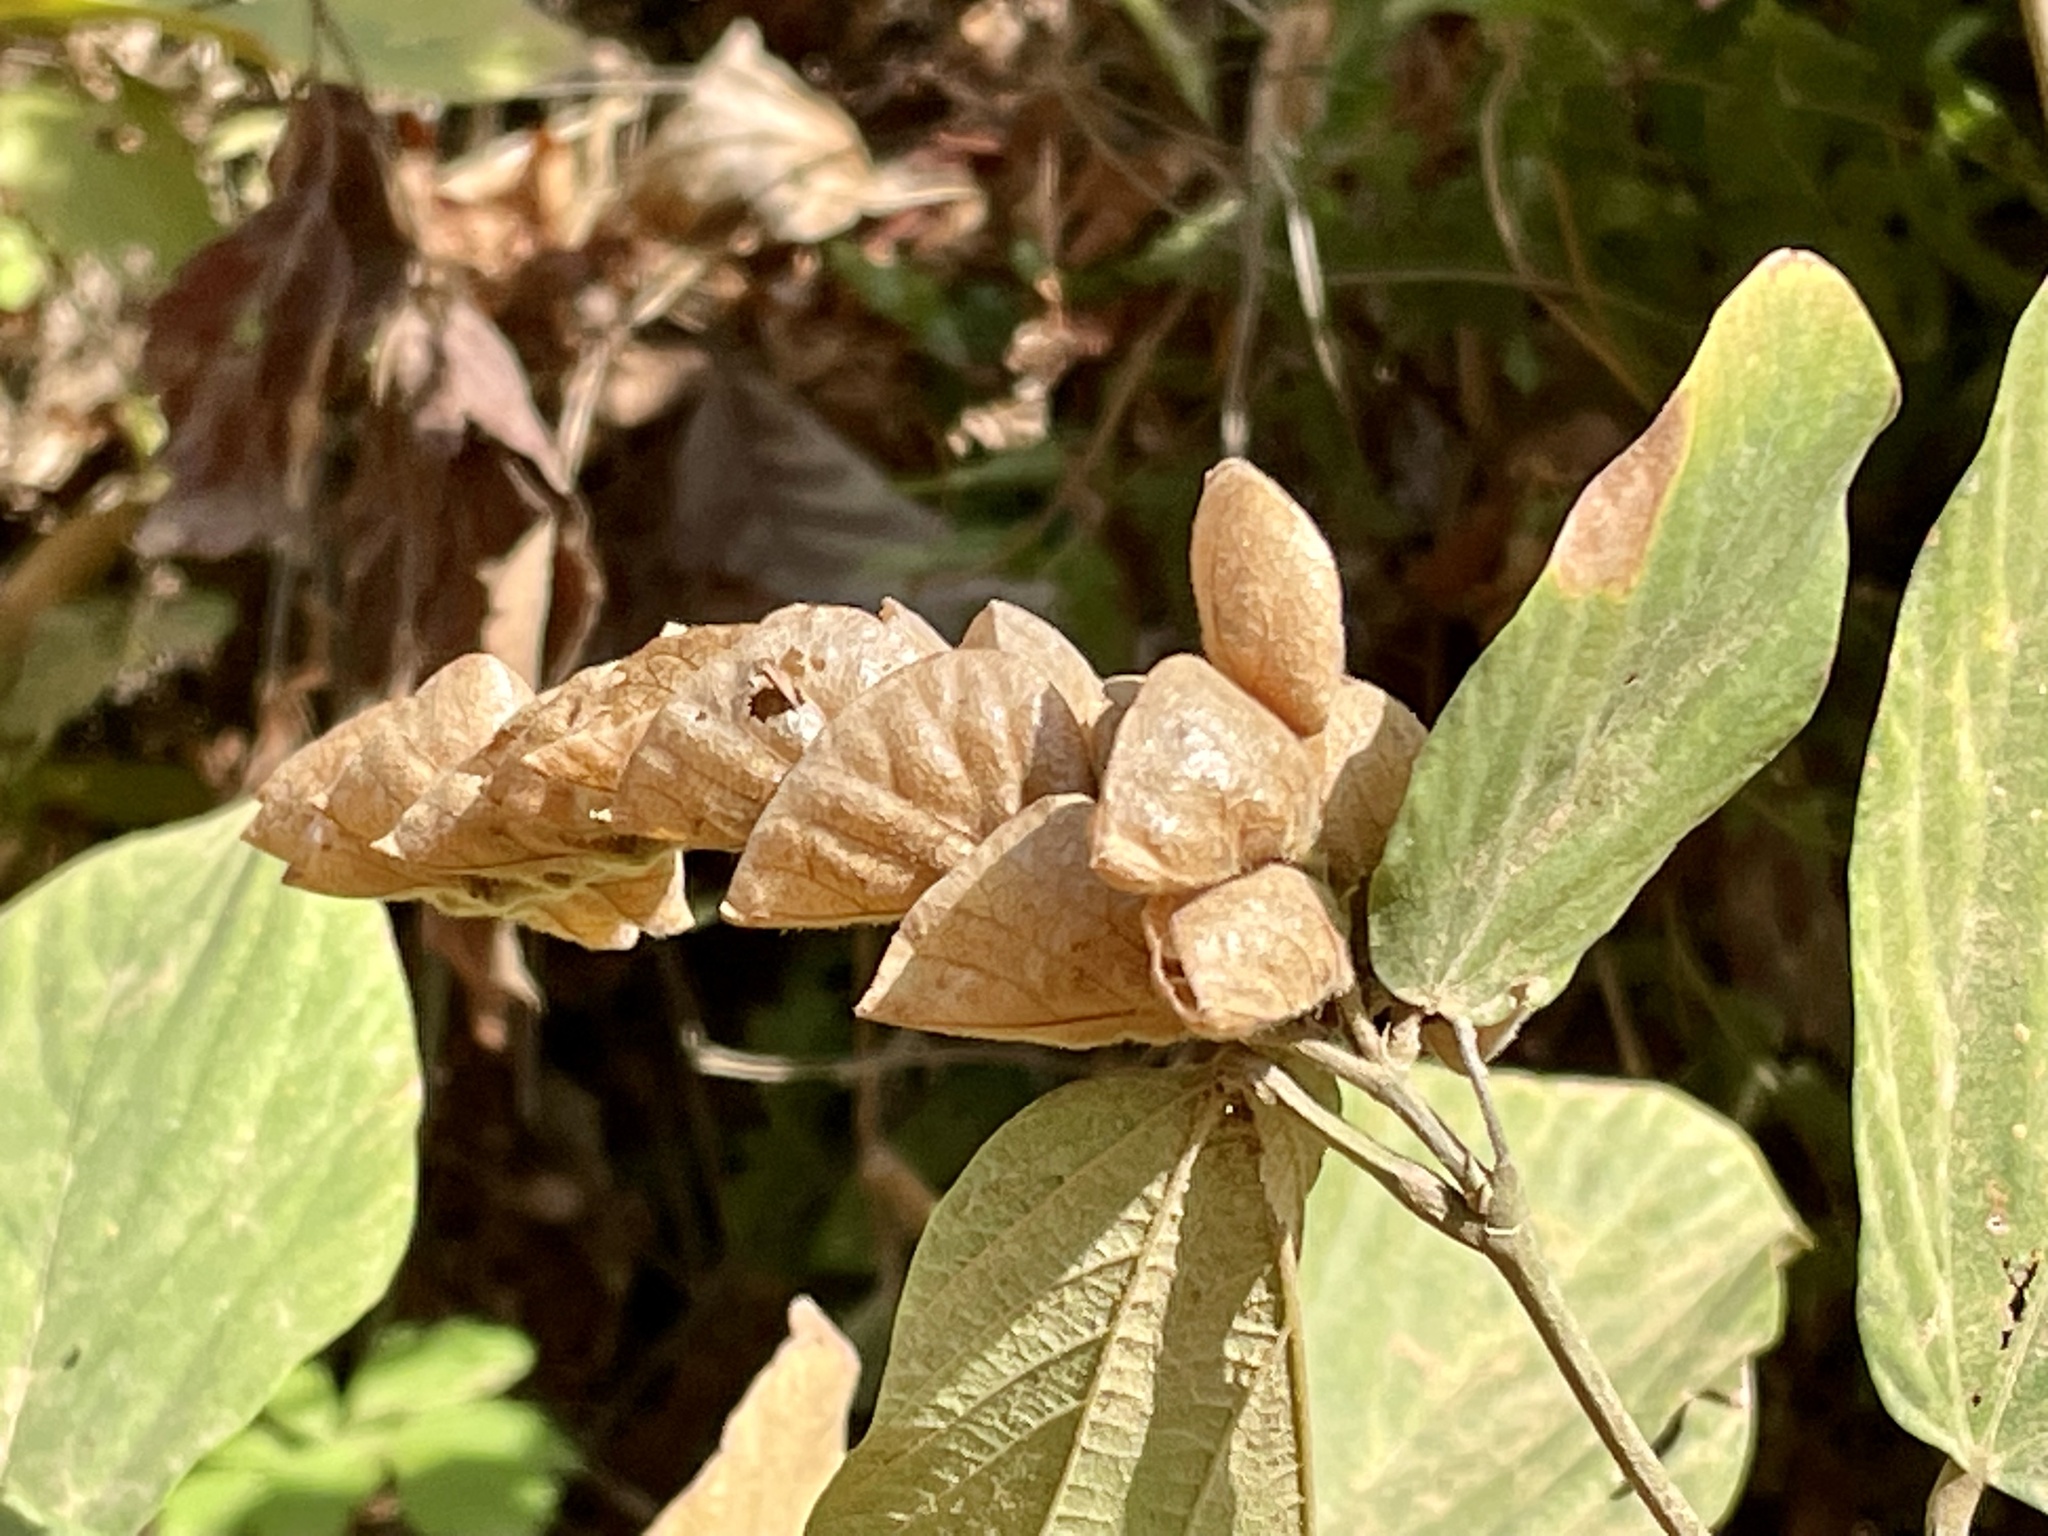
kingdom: Plantae
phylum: Tracheophyta
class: Magnoliopsida
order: Fabales
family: Fabaceae
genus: Flemingia
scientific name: Flemingia strobilifera
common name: Wild hops
